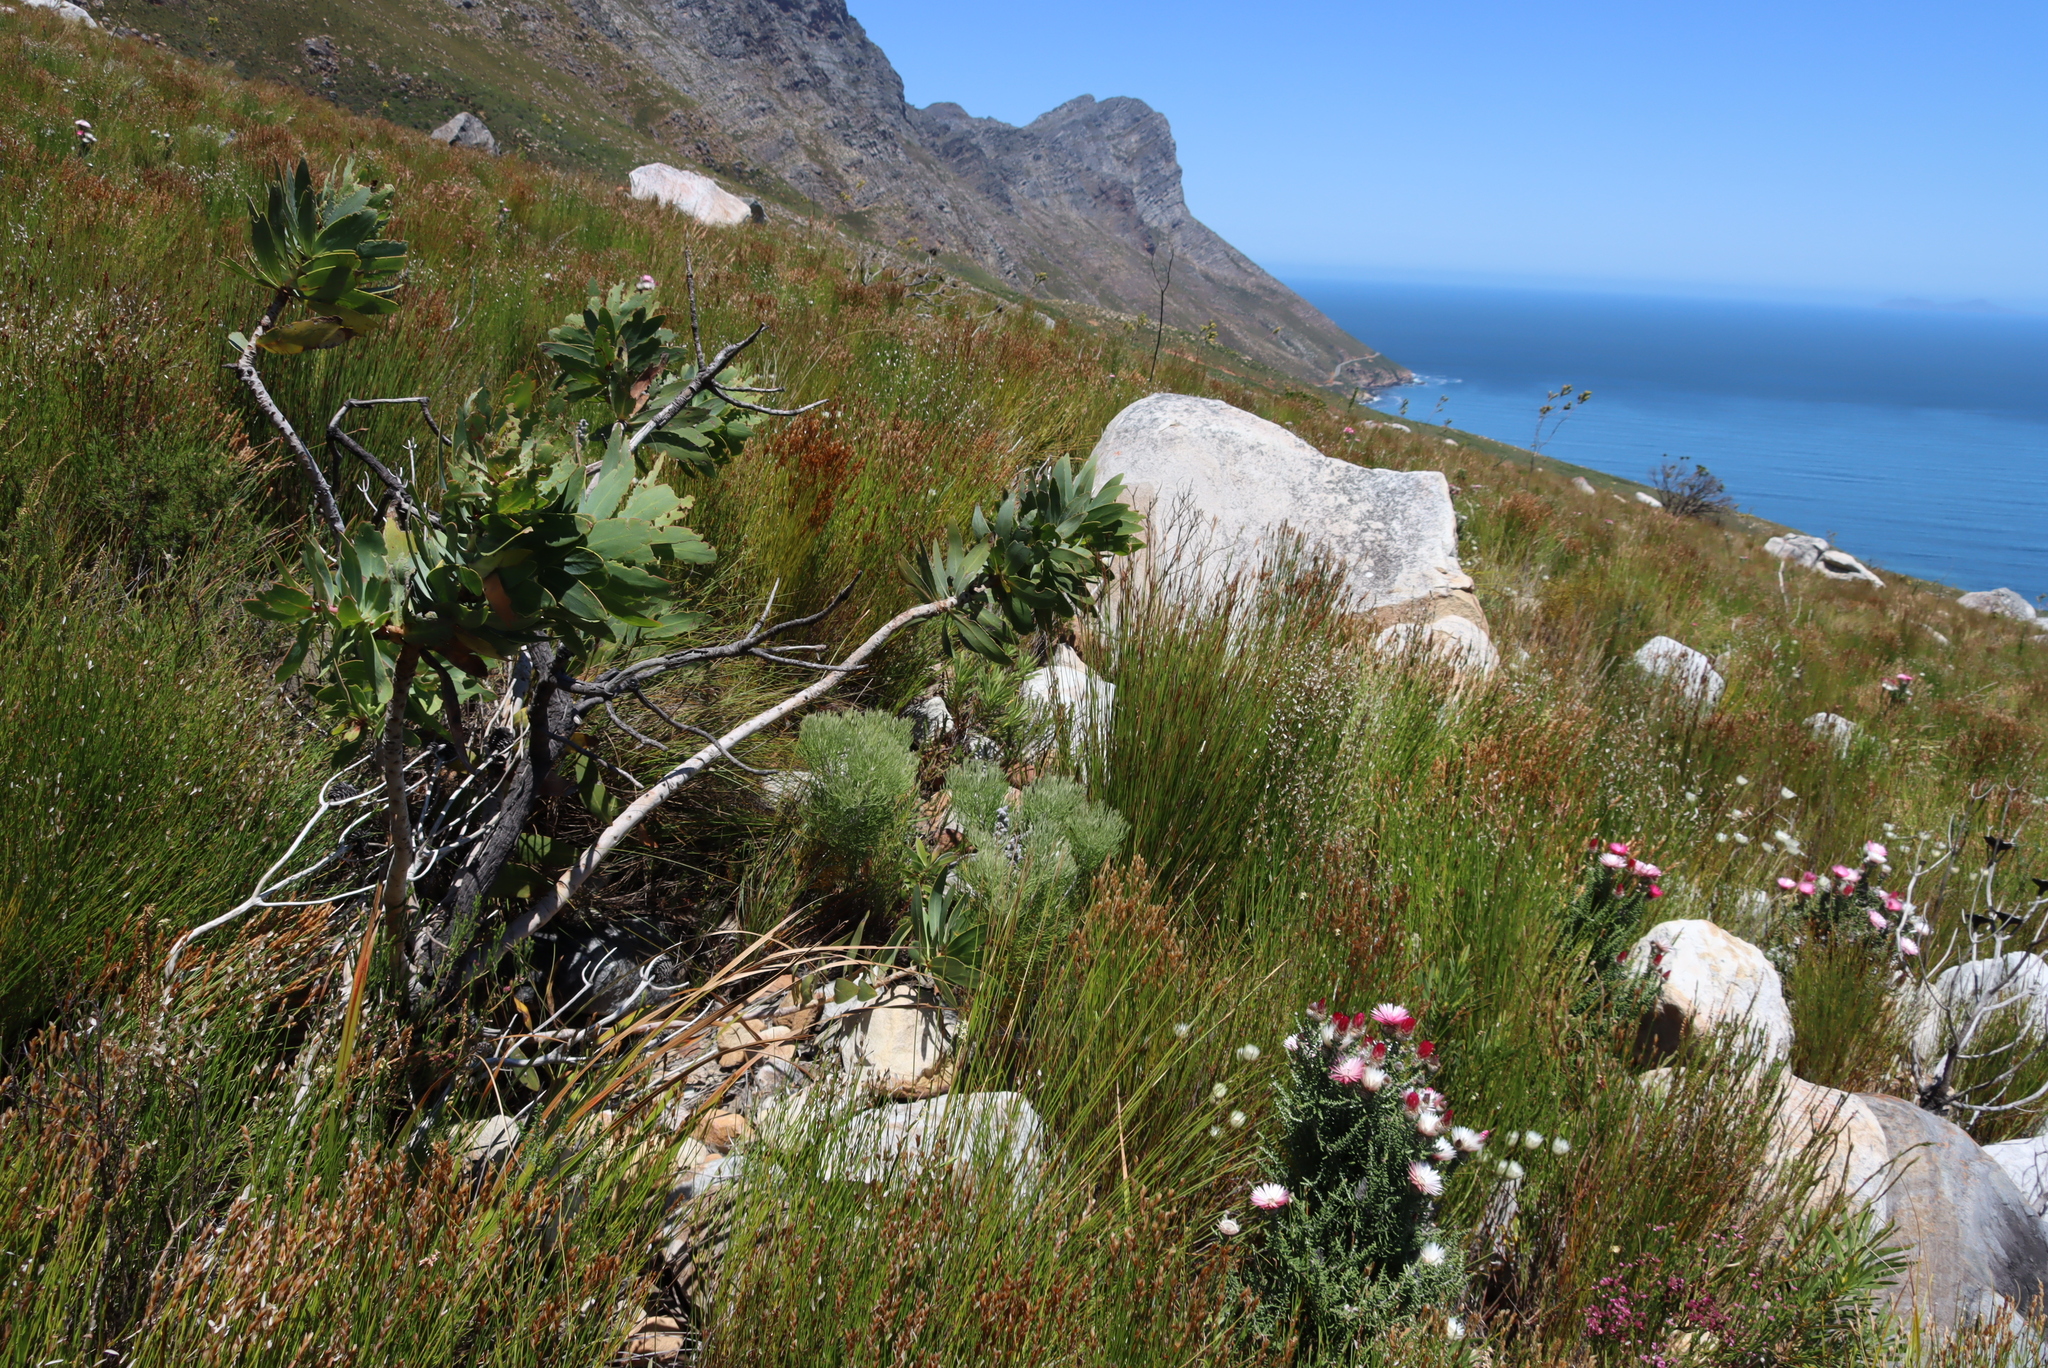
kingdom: Plantae
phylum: Tracheophyta
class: Magnoliopsida
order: Proteales
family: Proteaceae
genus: Protea
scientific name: Protea nitida
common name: Tree protea
